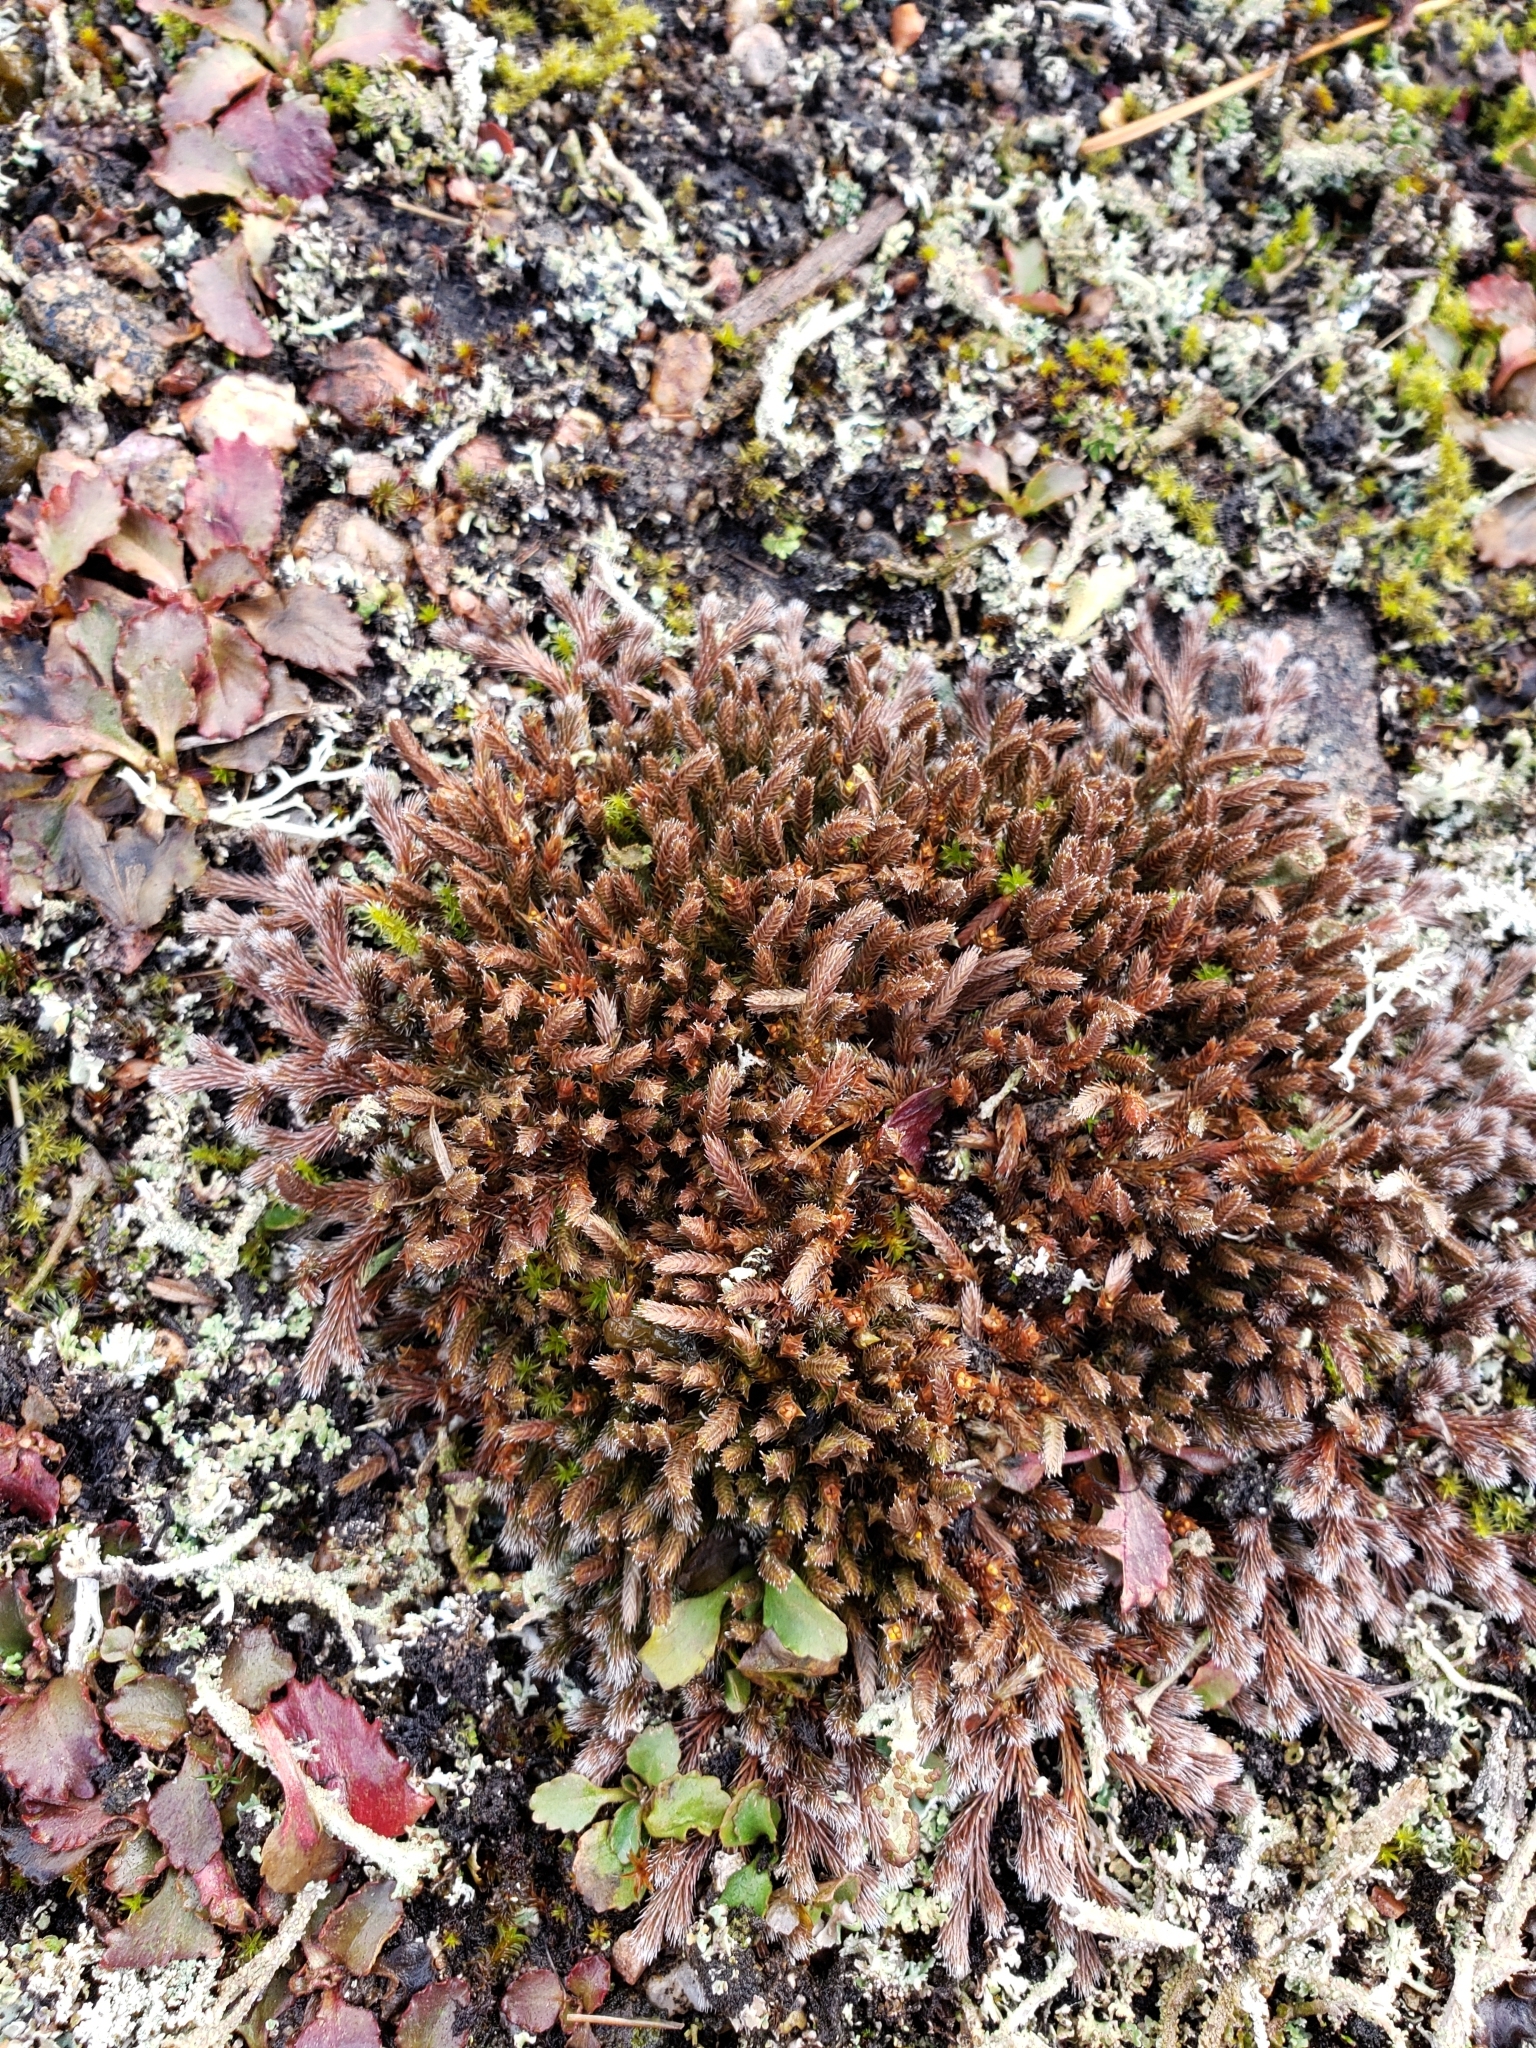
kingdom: Plantae
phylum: Tracheophyta
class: Lycopodiopsida
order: Selaginellales
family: Selaginellaceae
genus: Selaginella
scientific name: Selaginella rupestris
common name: Dwarf spikemoss
